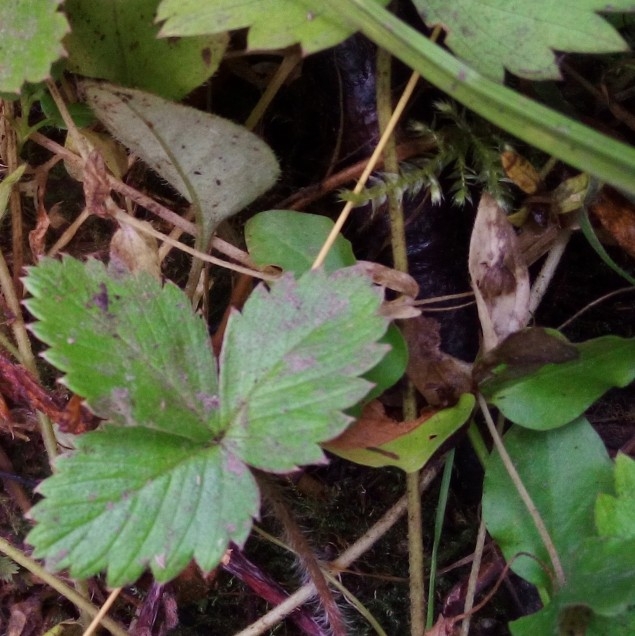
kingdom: Plantae
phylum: Tracheophyta
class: Magnoliopsida
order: Rosales
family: Rosaceae
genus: Fragaria
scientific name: Fragaria vesca
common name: Wild strawberry
